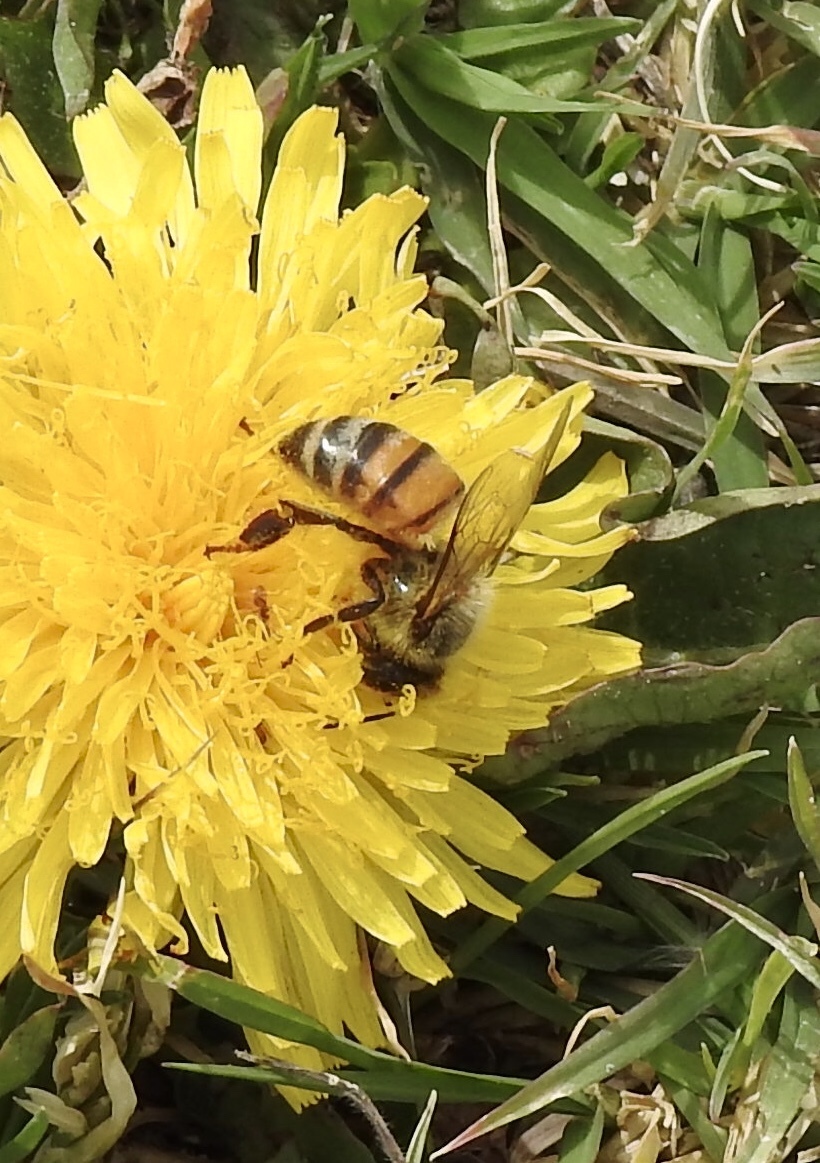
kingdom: Animalia
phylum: Arthropoda
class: Insecta
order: Hymenoptera
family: Apidae
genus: Apis
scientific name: Apis mellifera
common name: Honey bee
